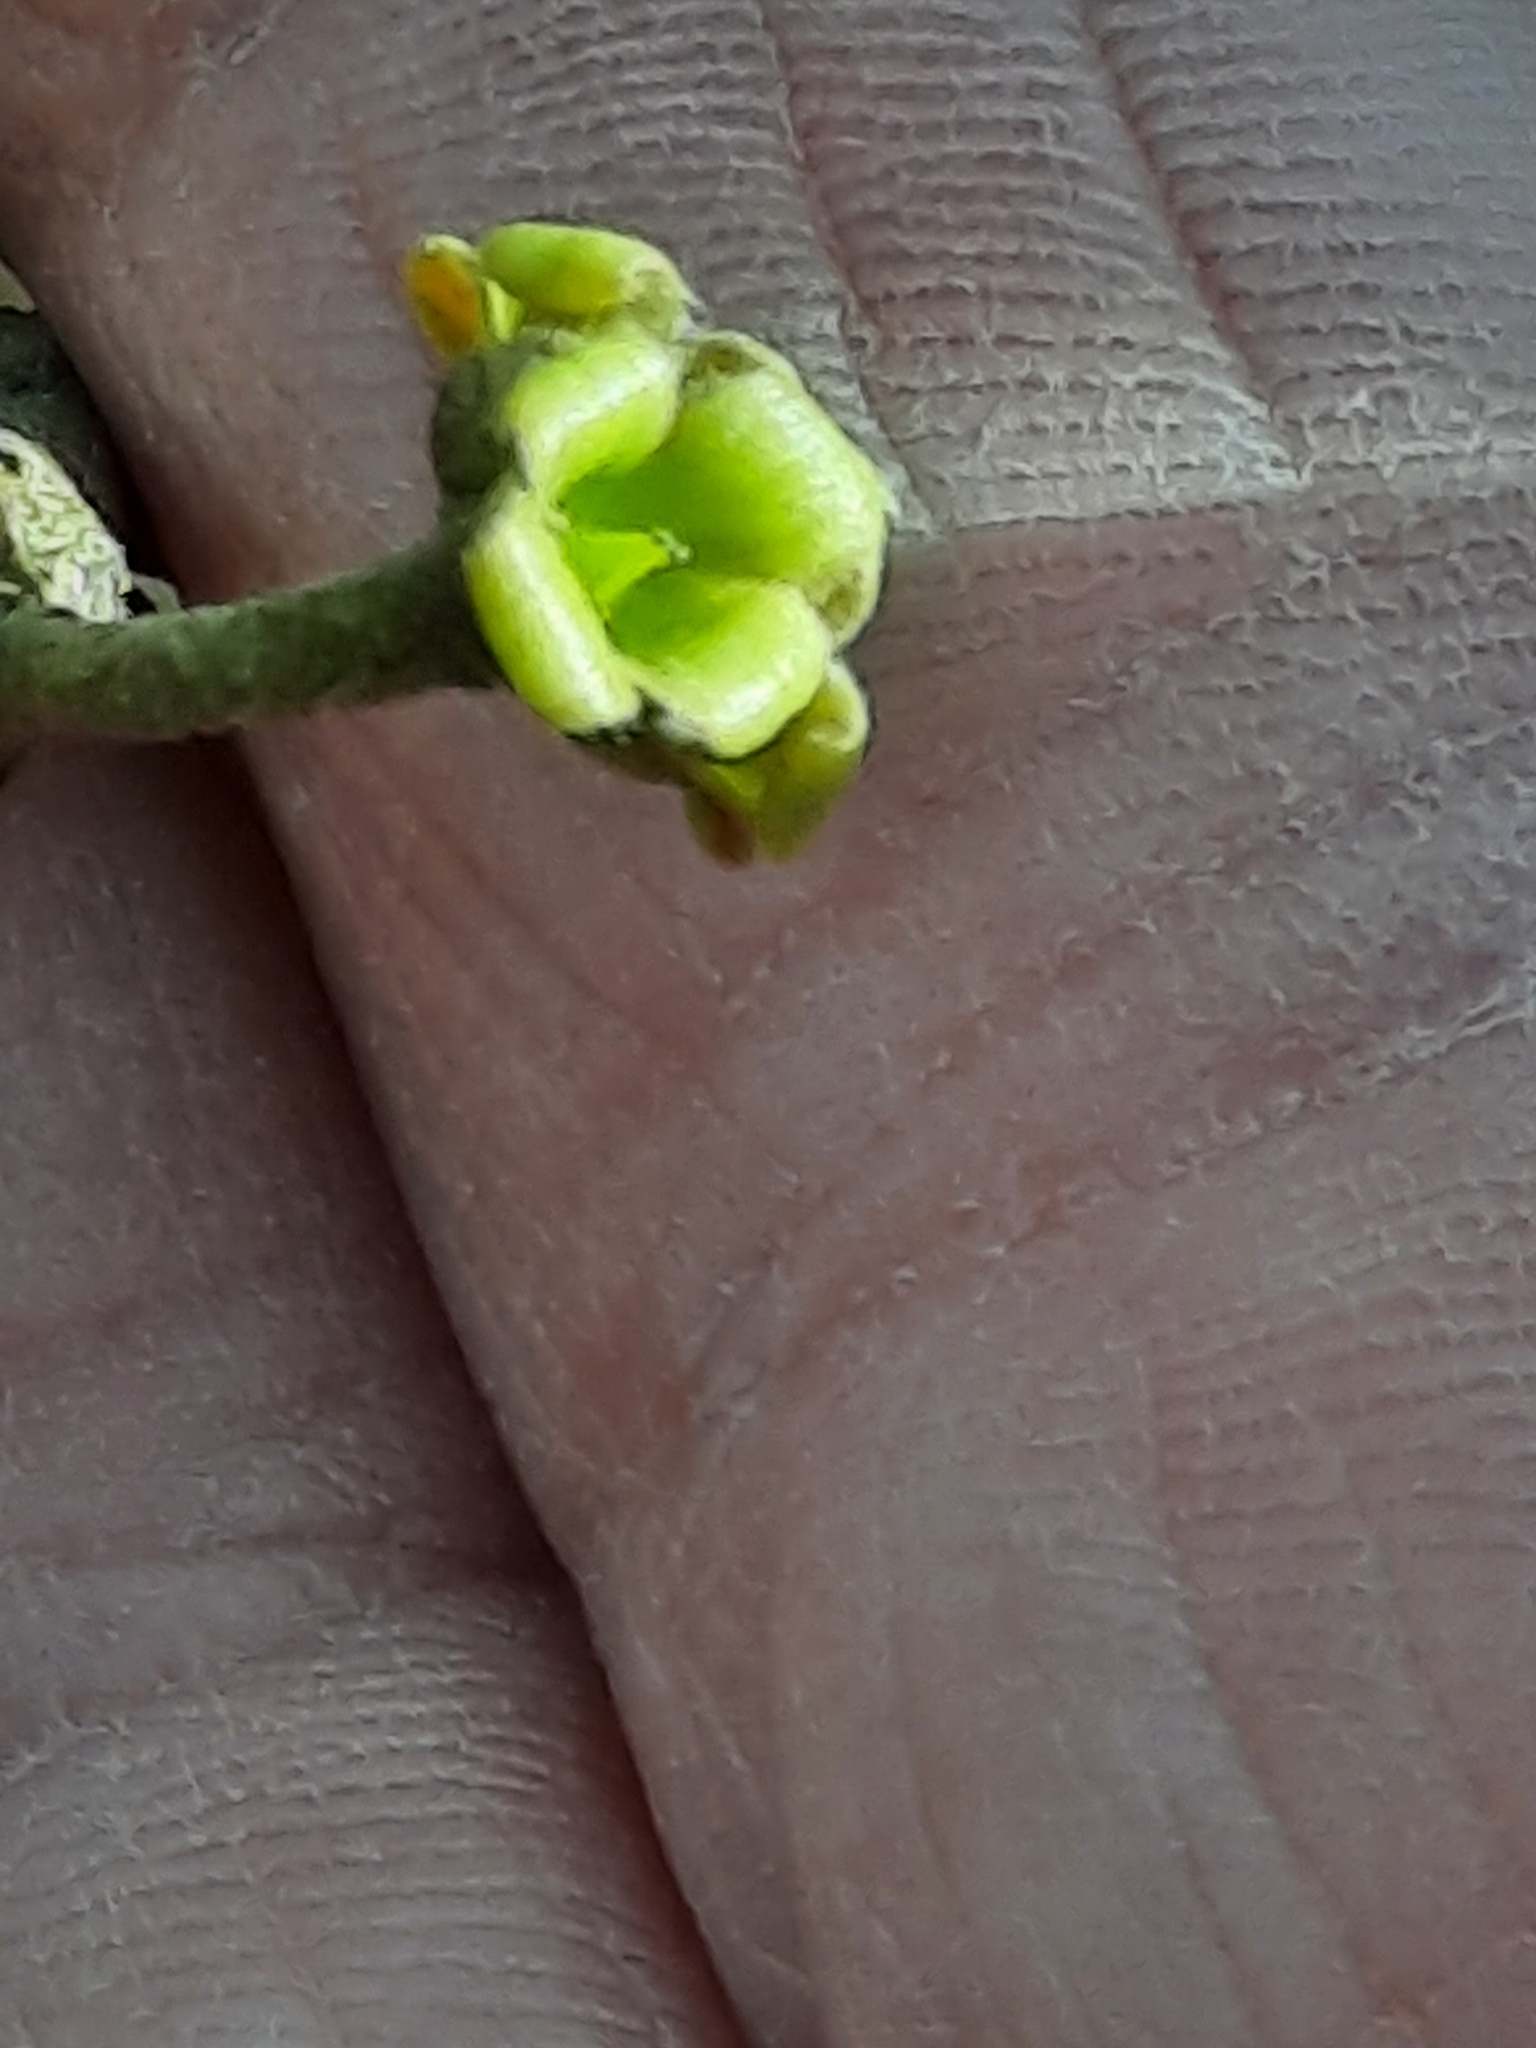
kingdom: Plantae
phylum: Tracheophyta
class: Magnoliopsida
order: Saxifragales
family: Hamamelidaceae
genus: Hamamelis
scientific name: Hamamelis virginiana
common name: Witch-hazel
